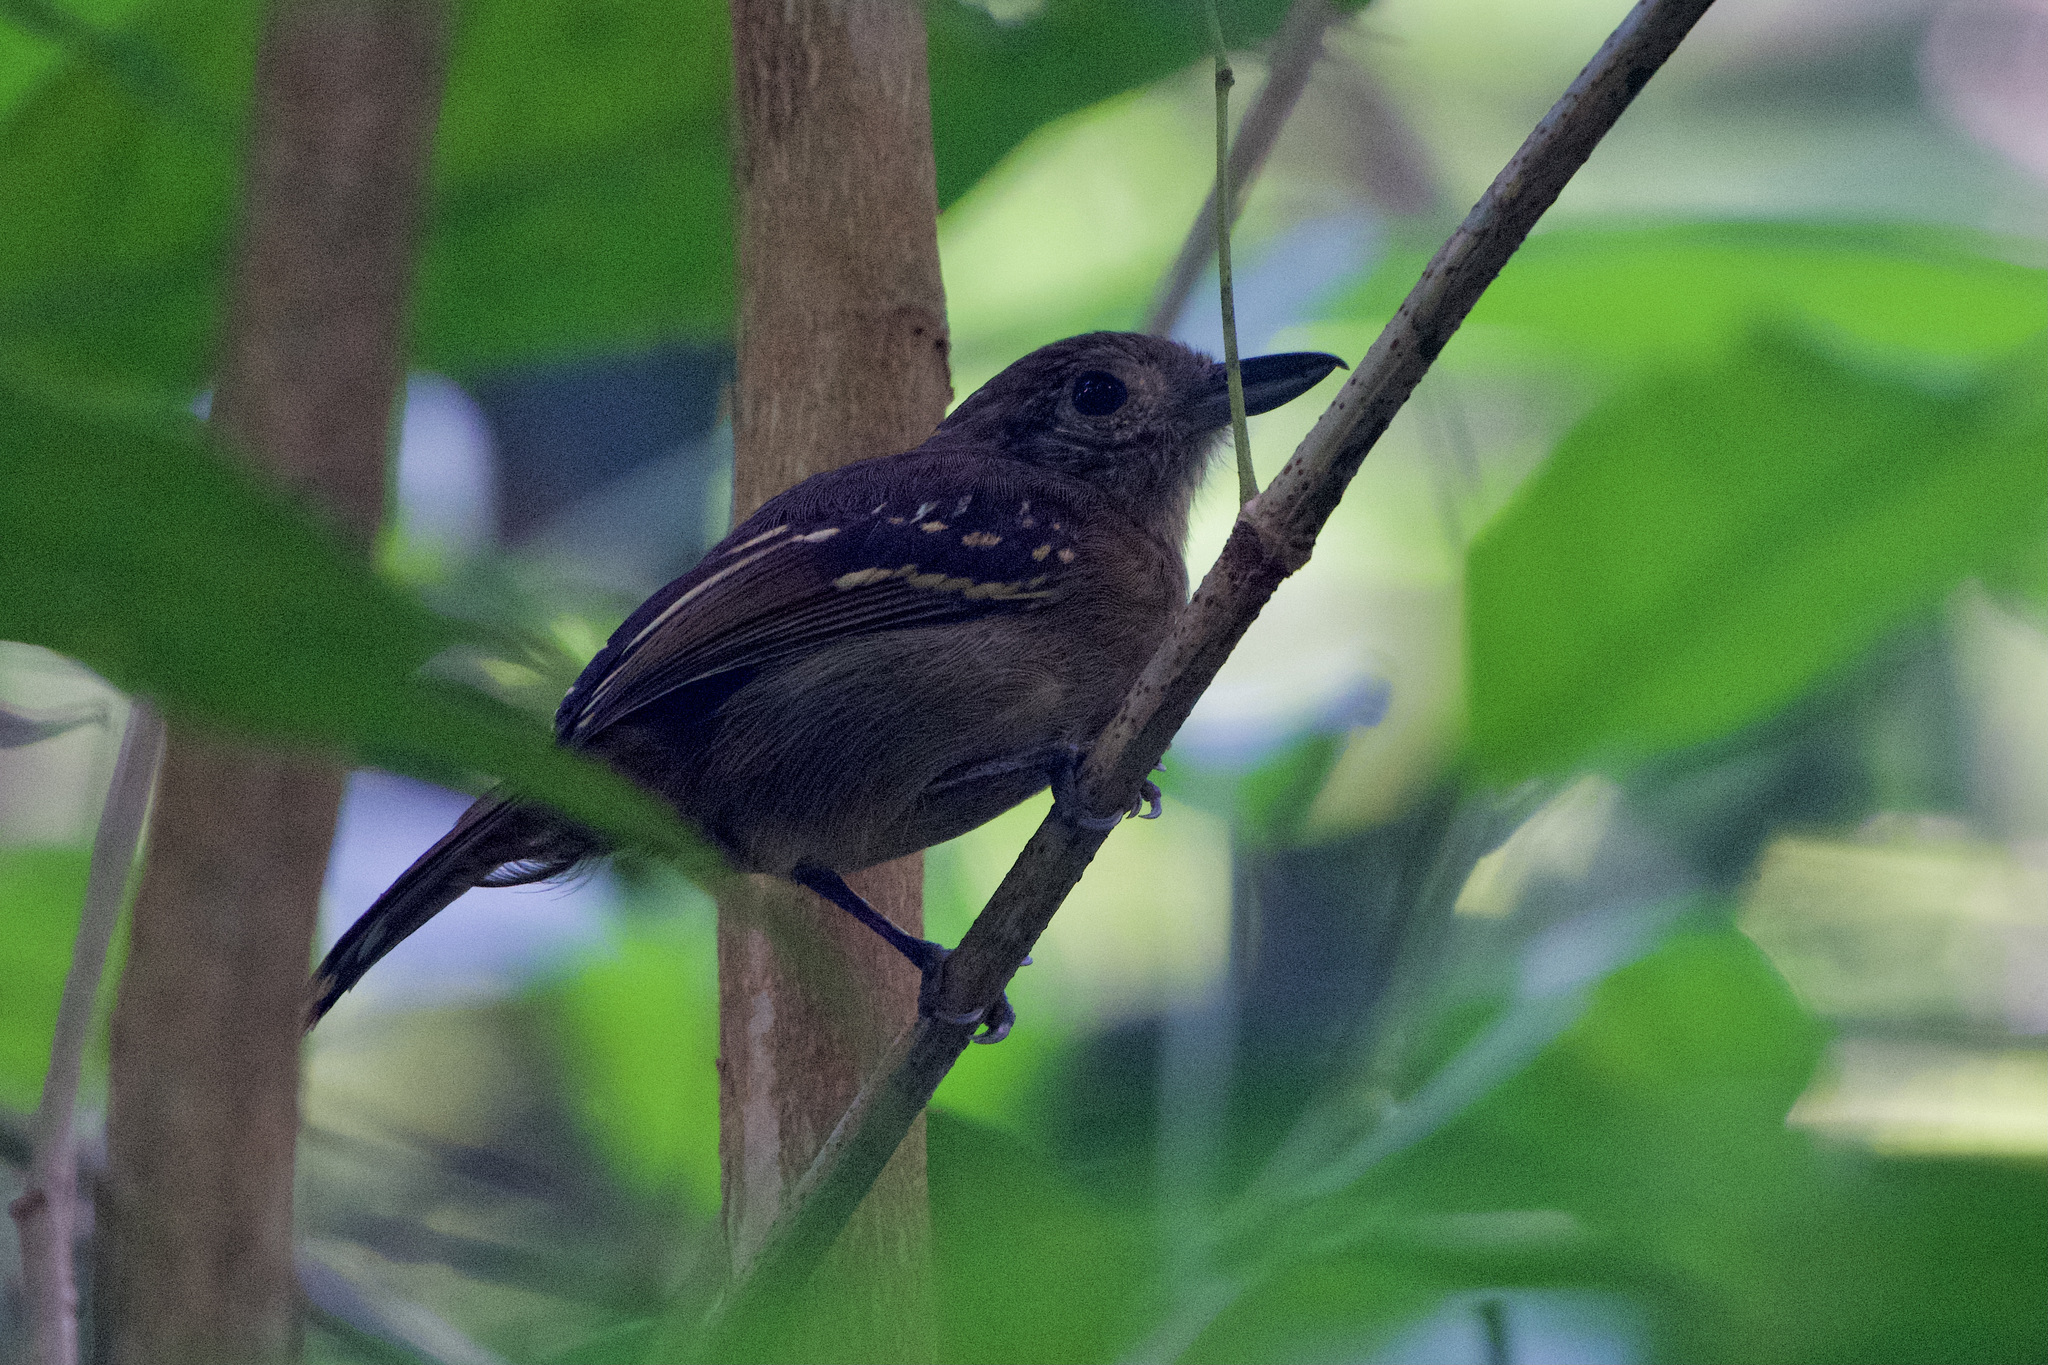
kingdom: Animalia
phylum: Chordata
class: Aves
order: Passeriformes
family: Thamnophilidae
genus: Thamnophilus
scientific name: Thamnophilus atrinucha
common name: Black-crowned antshrike
